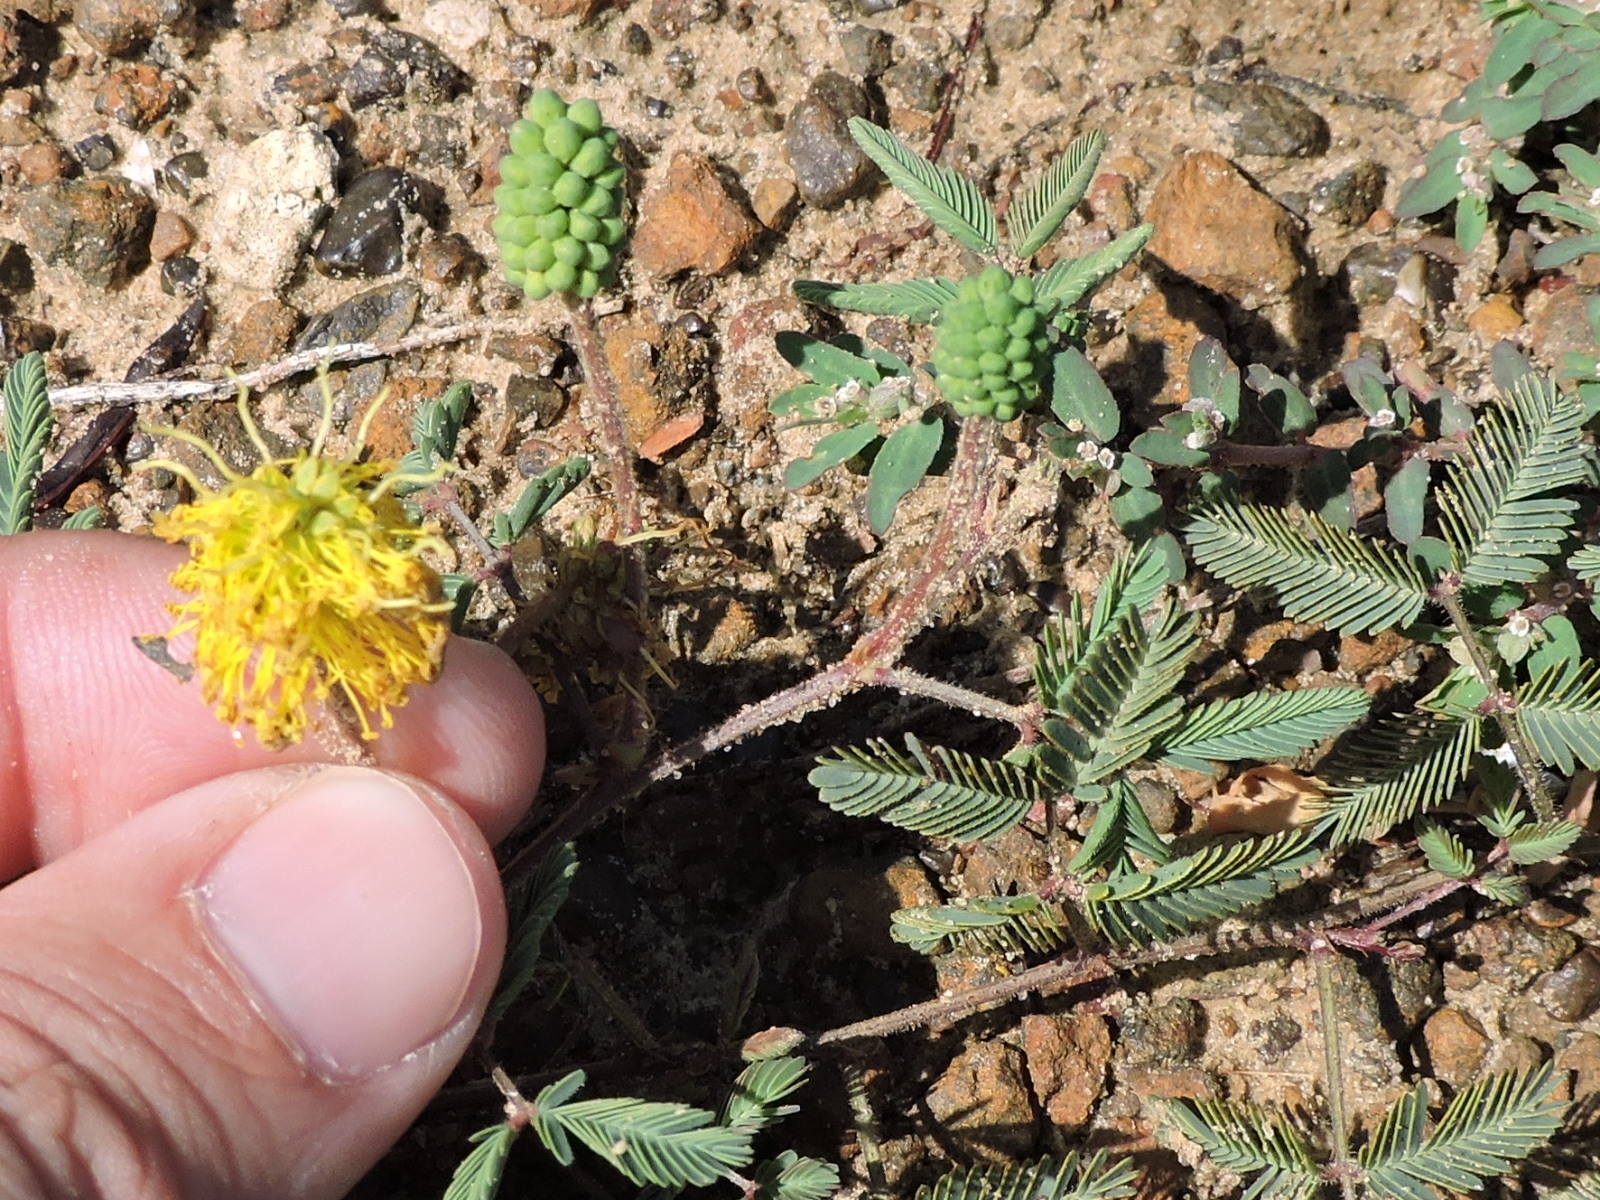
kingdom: Plantae
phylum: Tracheophyta
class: Magnoliopsida
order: Fabales
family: Fabaceae
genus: Neptunia
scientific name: Neptunia lutea
